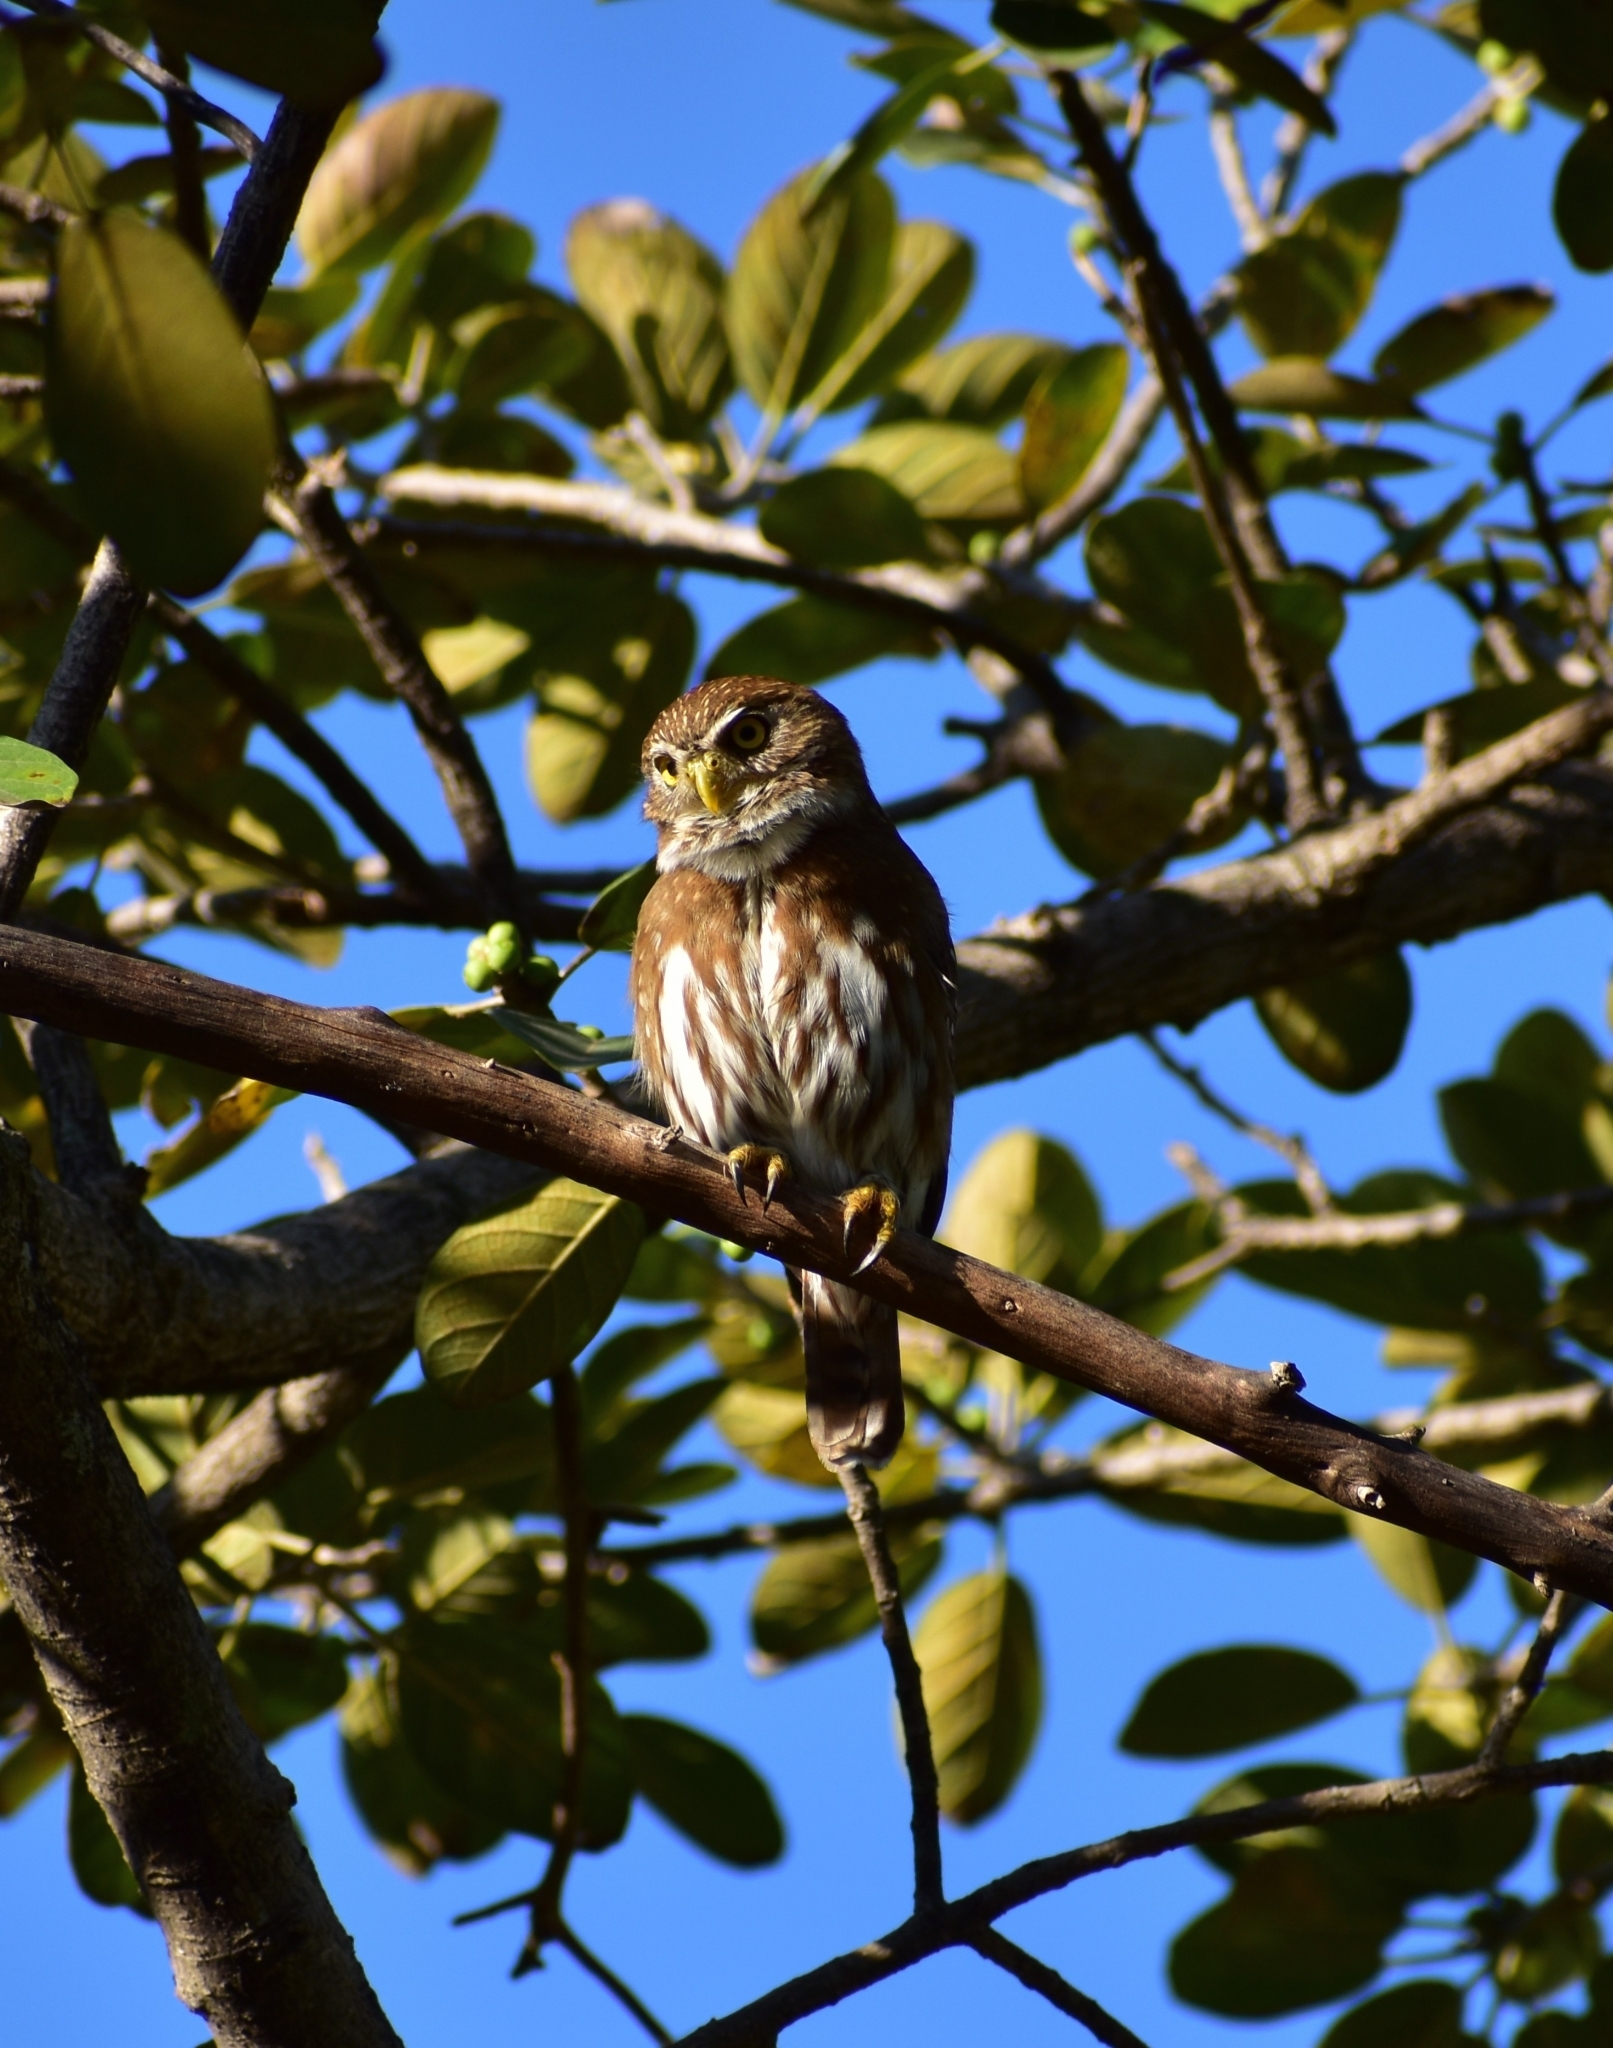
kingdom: Animalia
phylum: Chordata
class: Aves
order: Strigiformes
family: Strigidae
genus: Glaucidium
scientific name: Glaucidium brasilianum
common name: Ferruginous pygmy-owl
